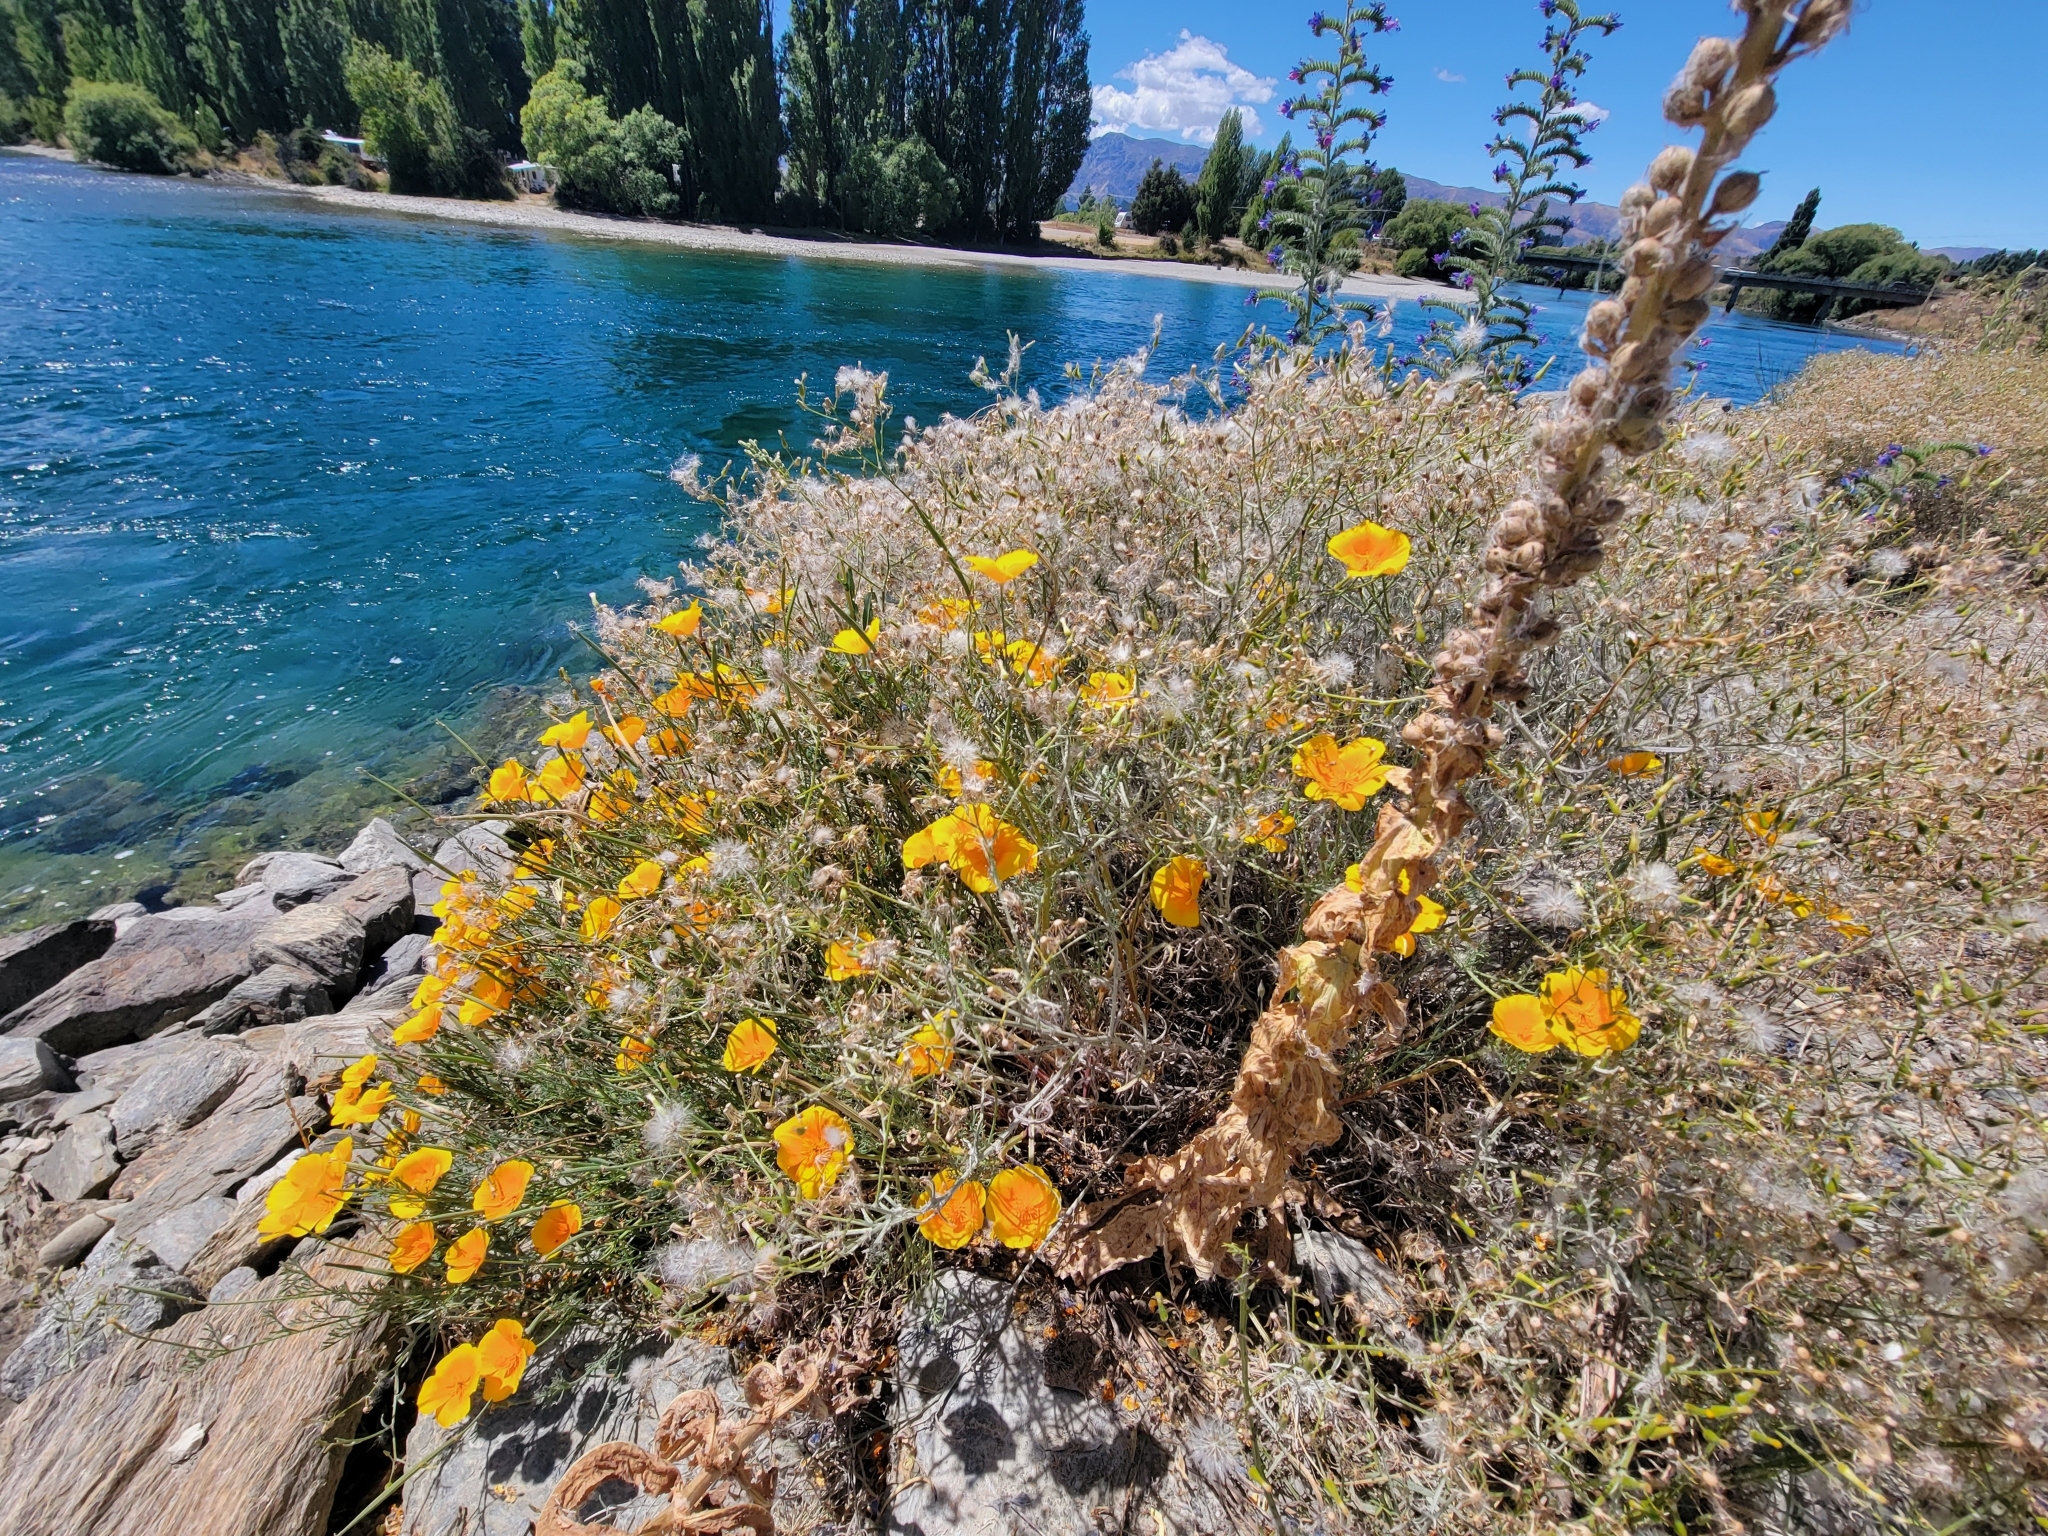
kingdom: Plantae
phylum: Tracheophyta
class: Magnoliopsida
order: Ranunculales
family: Papaveraceae
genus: Glaucium
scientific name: Glaucium flavum
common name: Yellow horned-poppy
